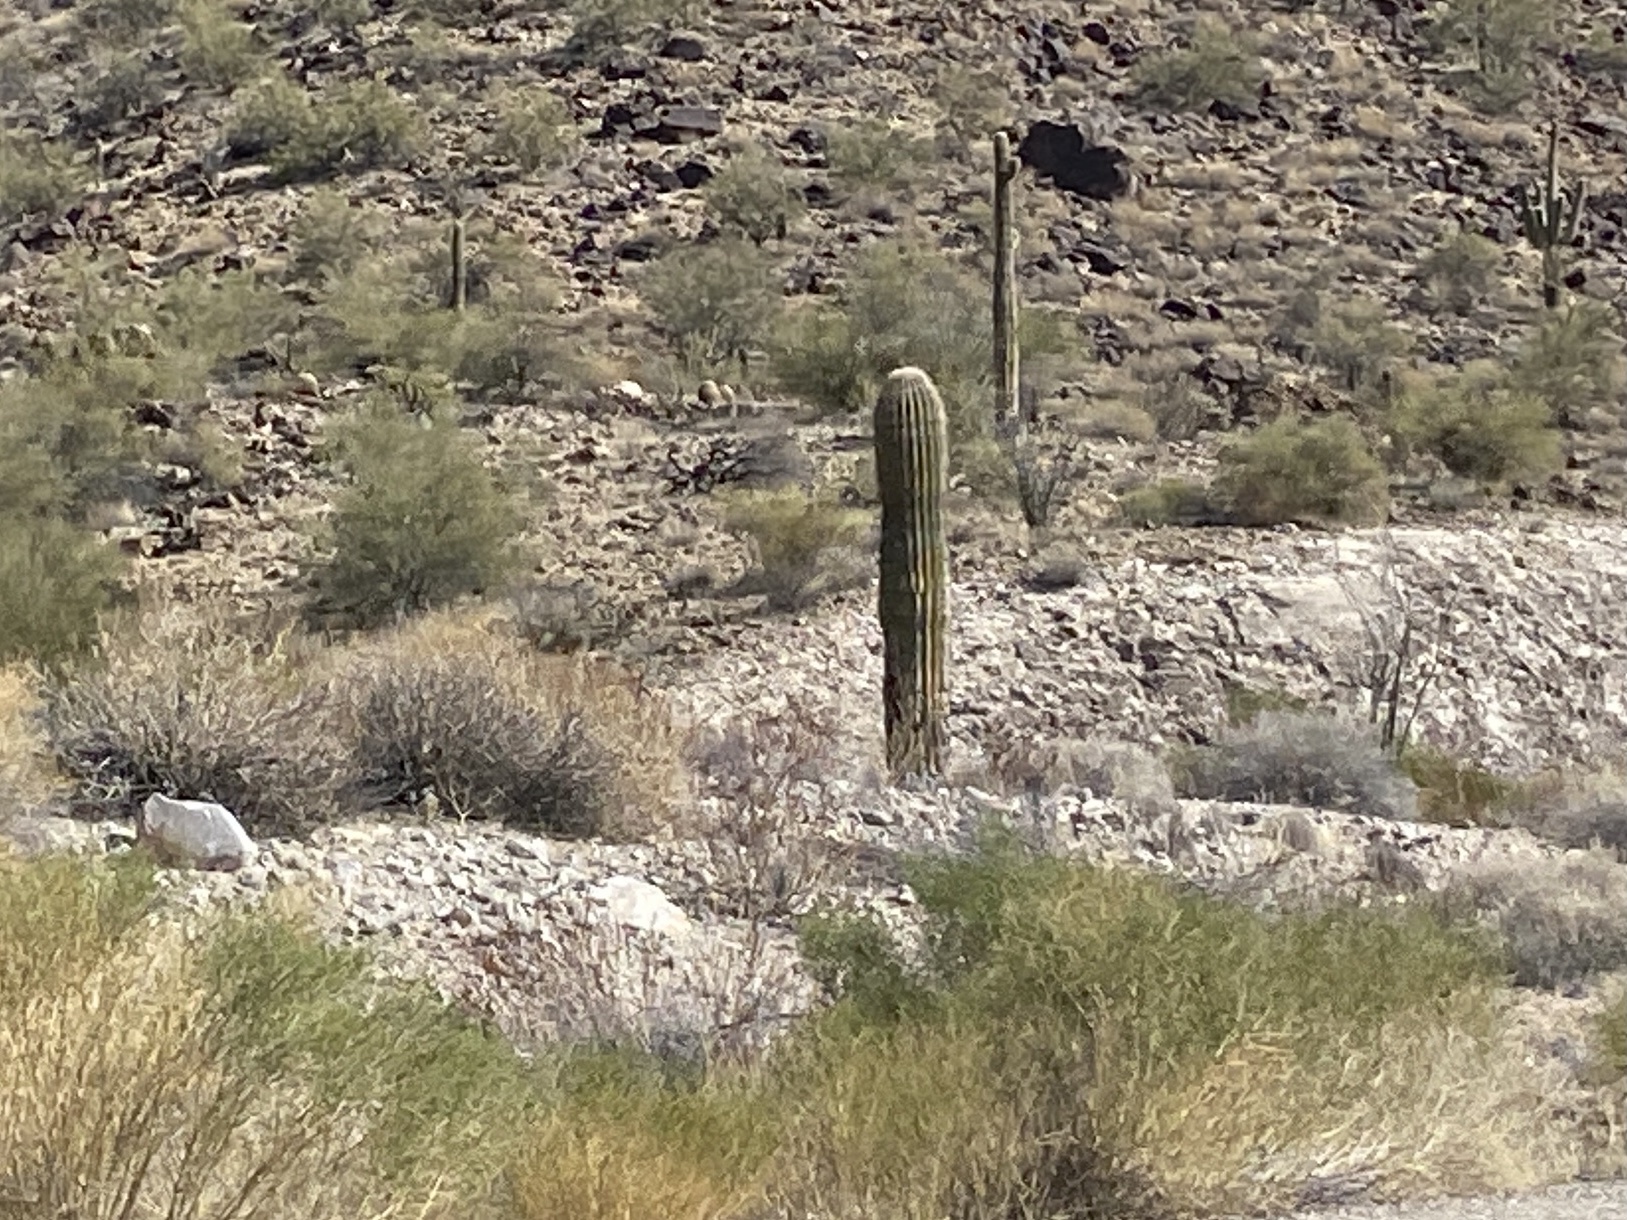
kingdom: Plantae
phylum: Tracheophyta
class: Magnoliopsida
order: Caryophyllales
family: Cactaceae
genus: Carnegiea
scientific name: Carnegiea gigantea
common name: Saguaro
